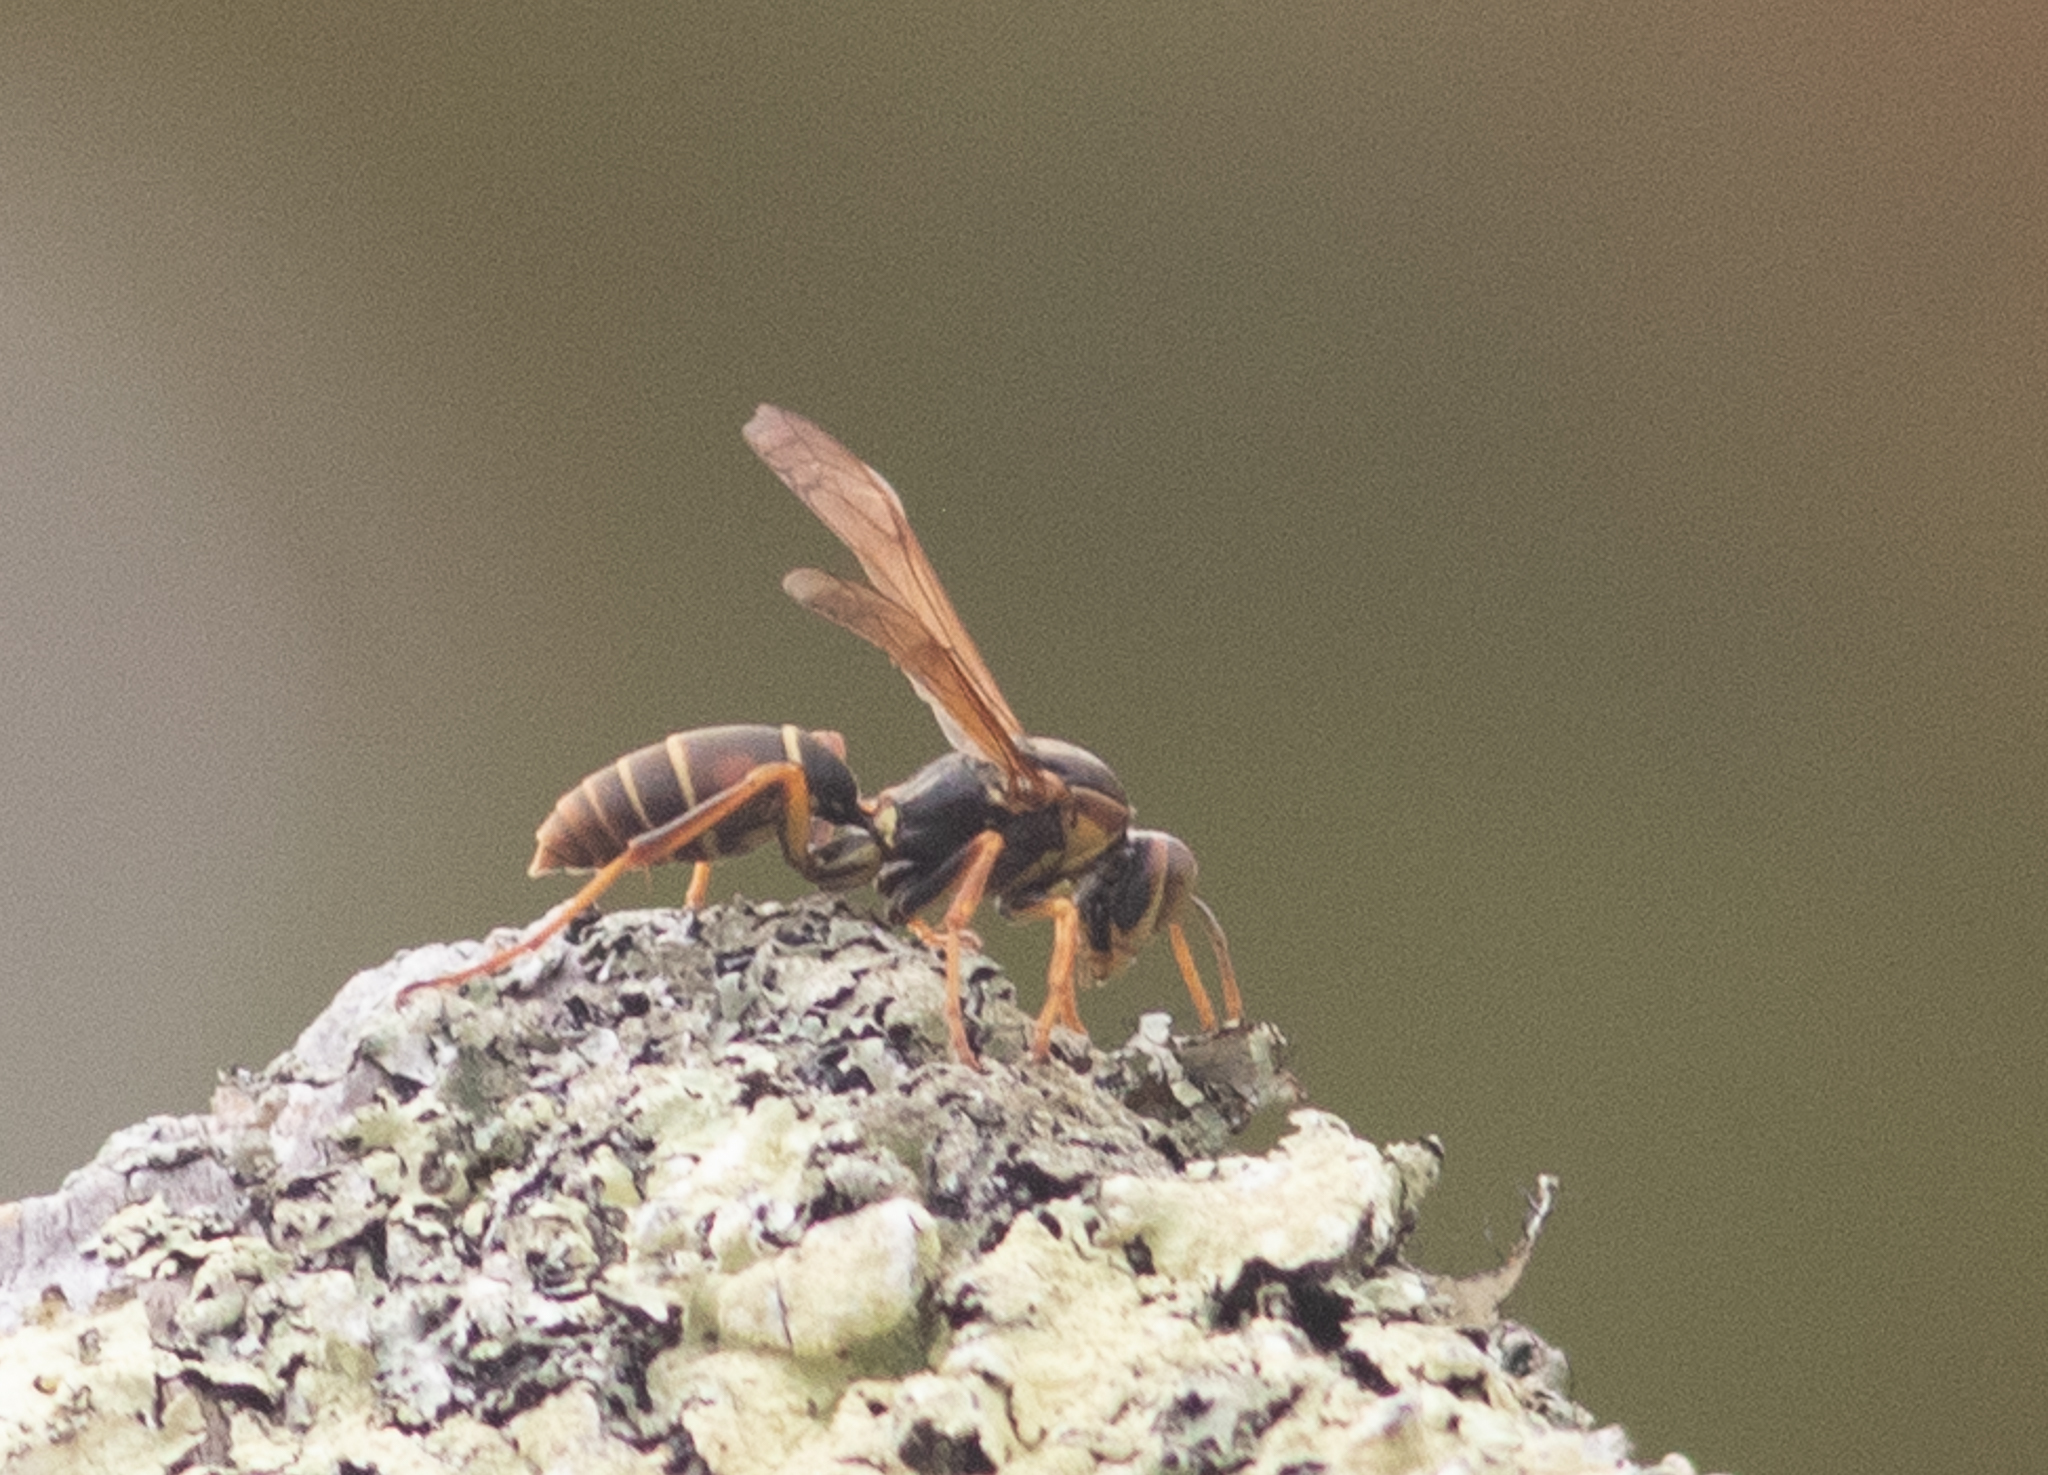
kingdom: Animalia
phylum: Arthropoda
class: Insecta
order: Hymenoptera
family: Eumenidae
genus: Polistes
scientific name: Polistes fuscatus
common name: Dark paper wasp
